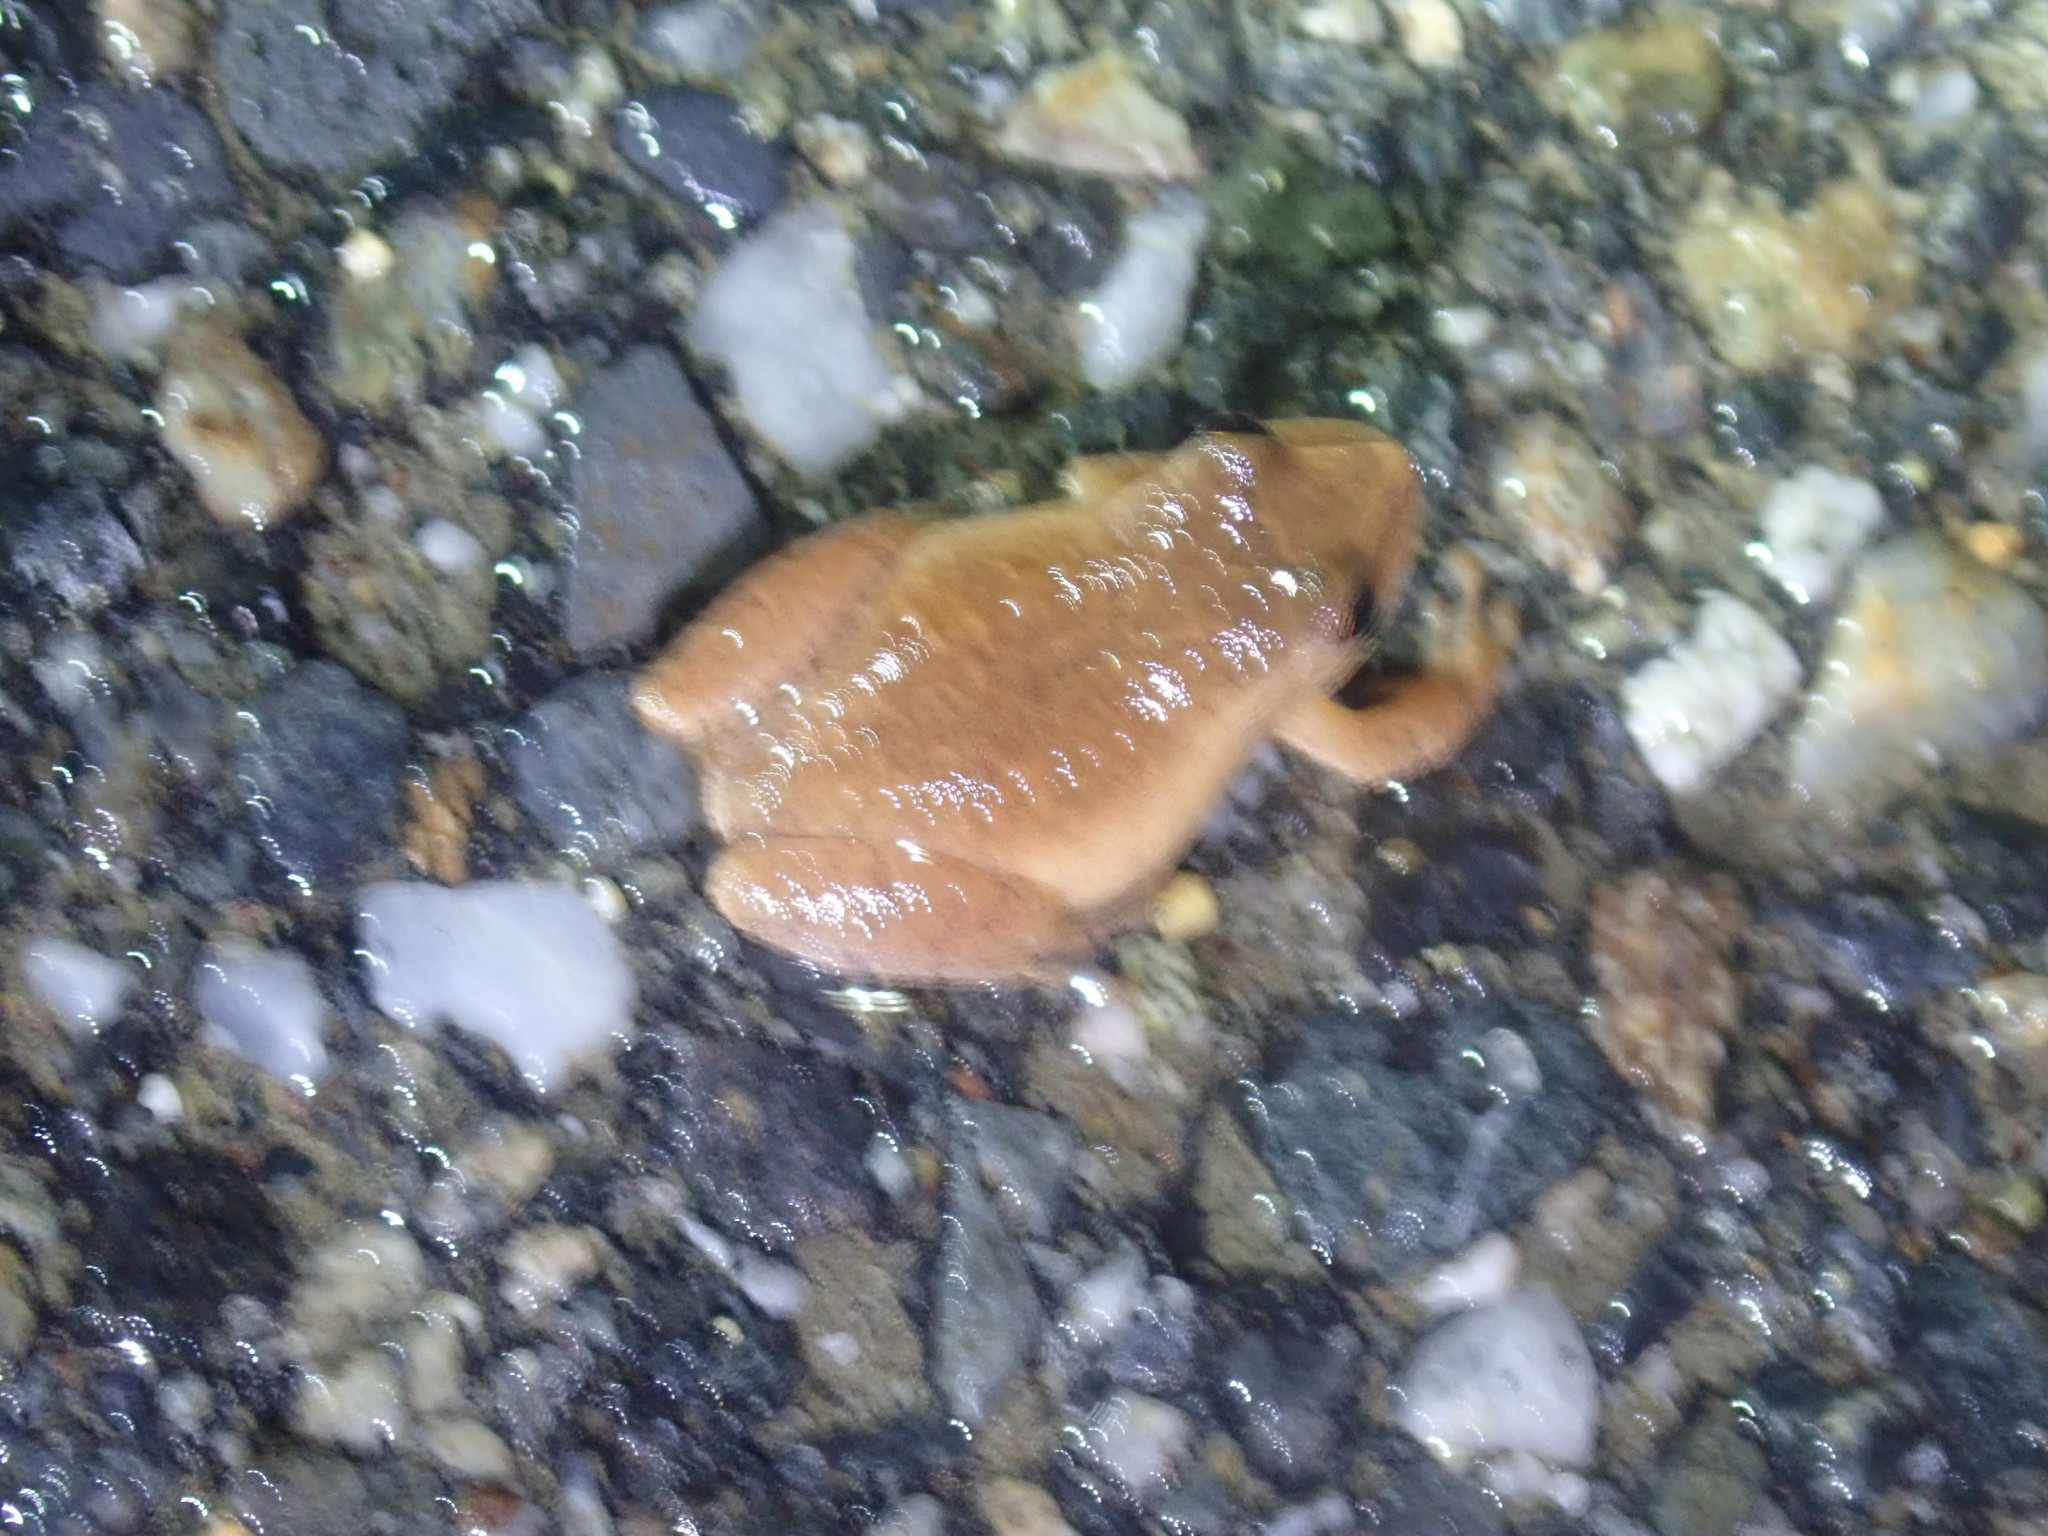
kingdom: Animalia
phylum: Chordata
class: Amphibia
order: Anura
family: Hylidae
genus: Pseudacris
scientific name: Pseudacris crucifer
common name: Spring peeper
